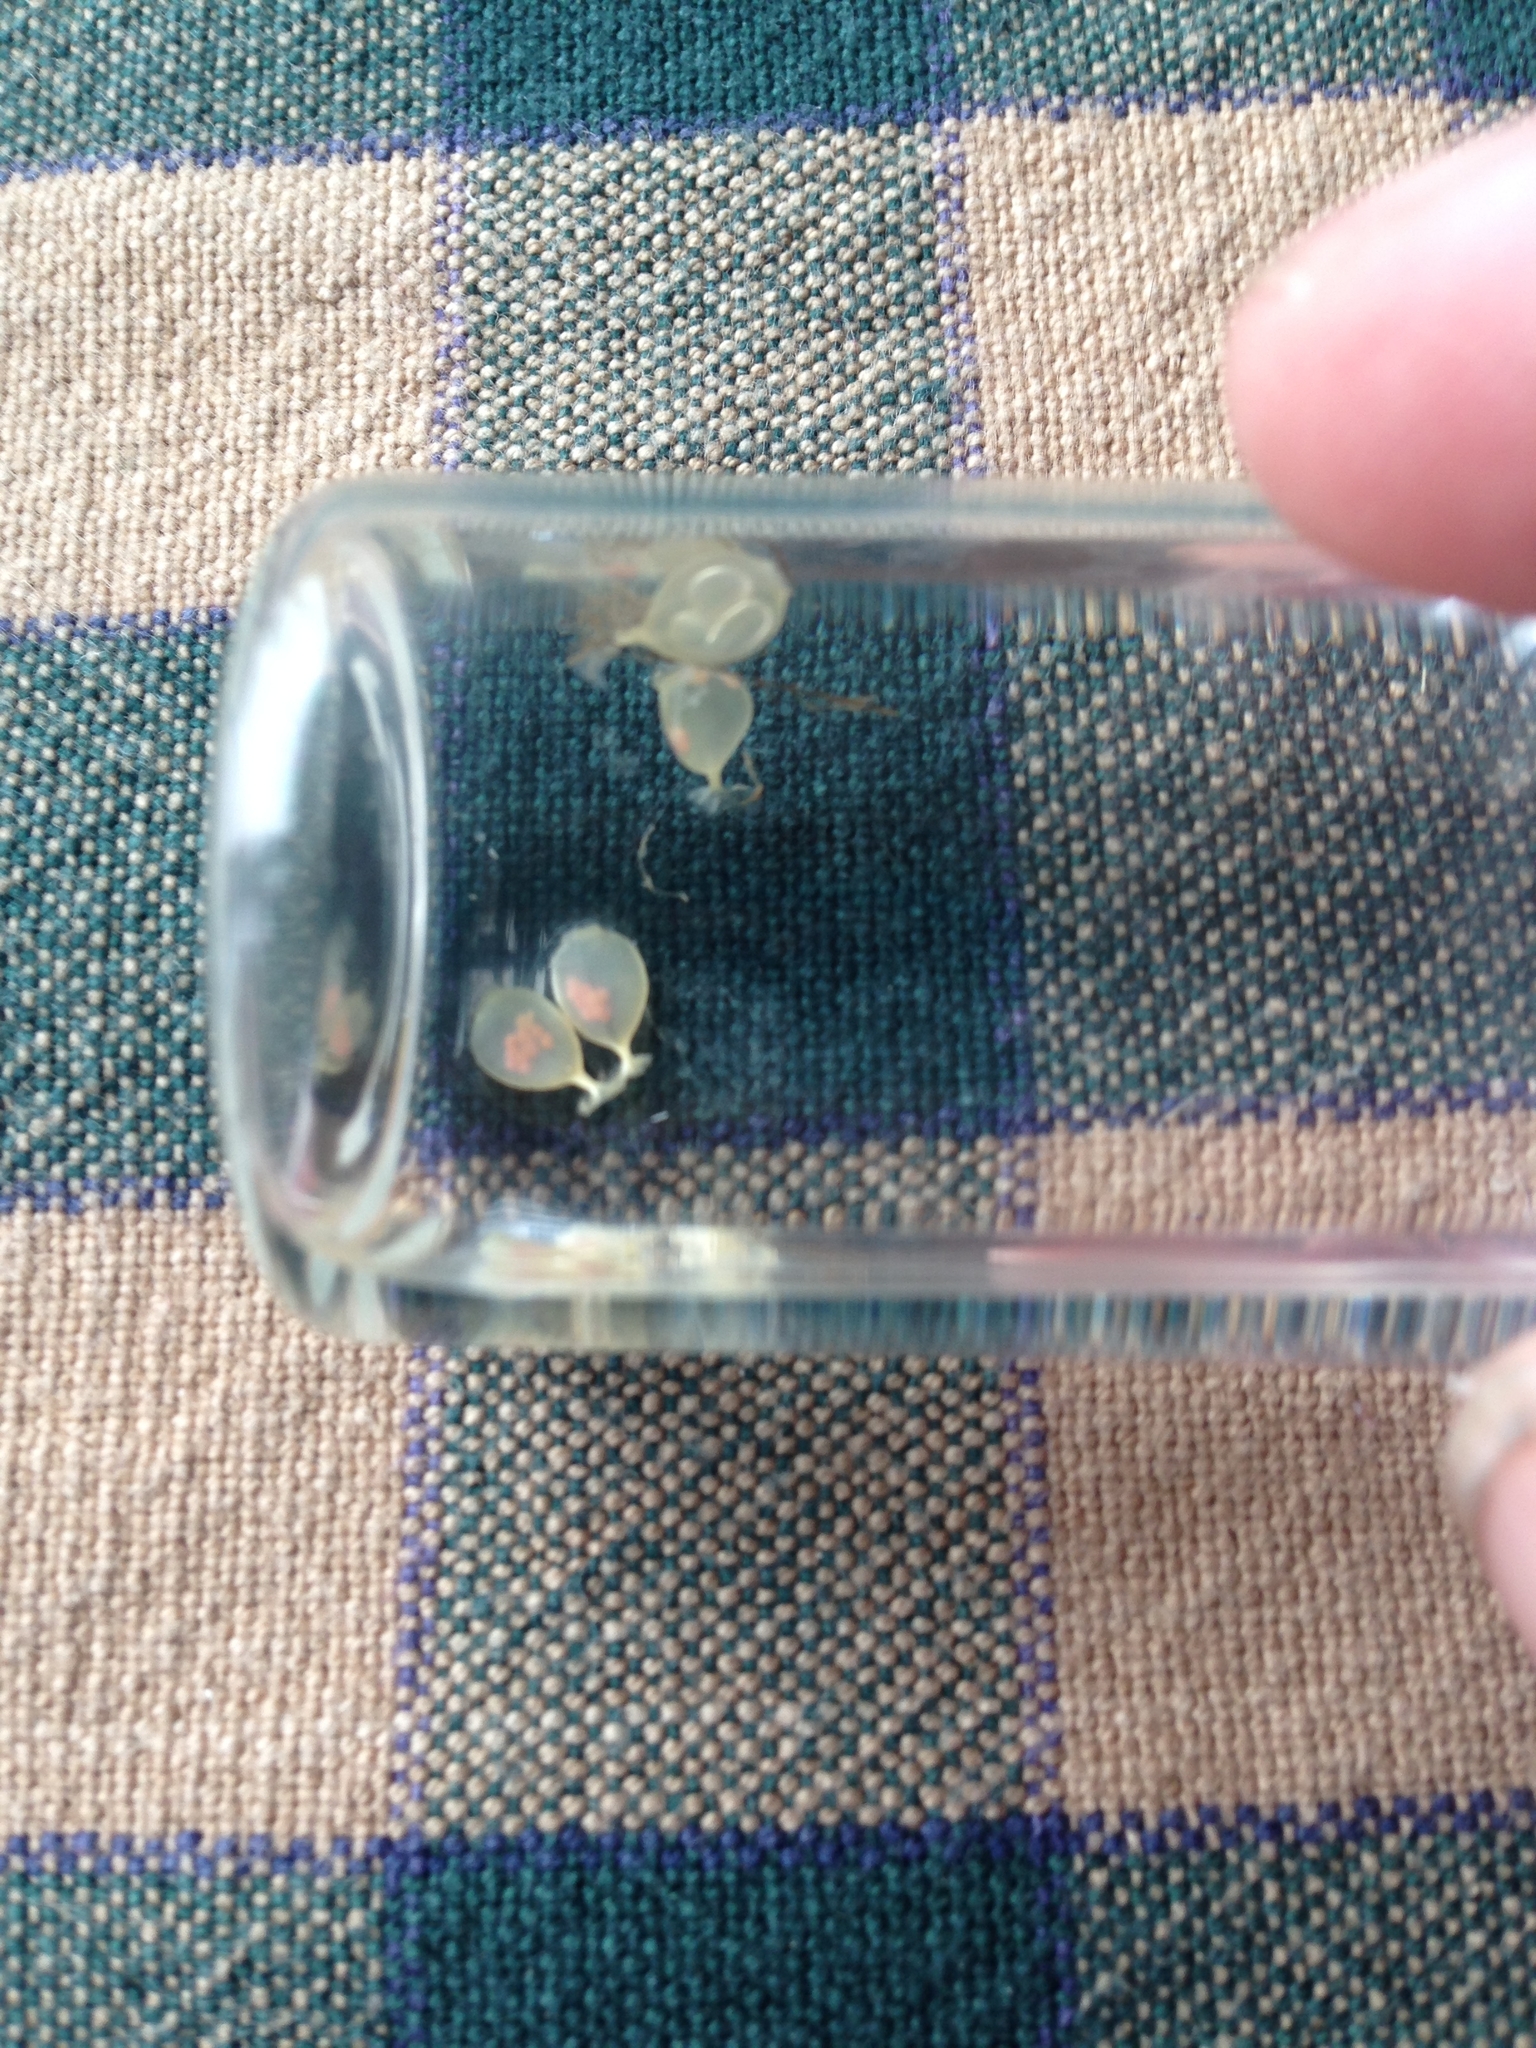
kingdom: Animalia
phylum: Mollusca
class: Gastropoda
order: Neogastropoda
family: Muricidae
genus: Urosalpinx
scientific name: Urosalpinx cinerea
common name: American sting winkle
